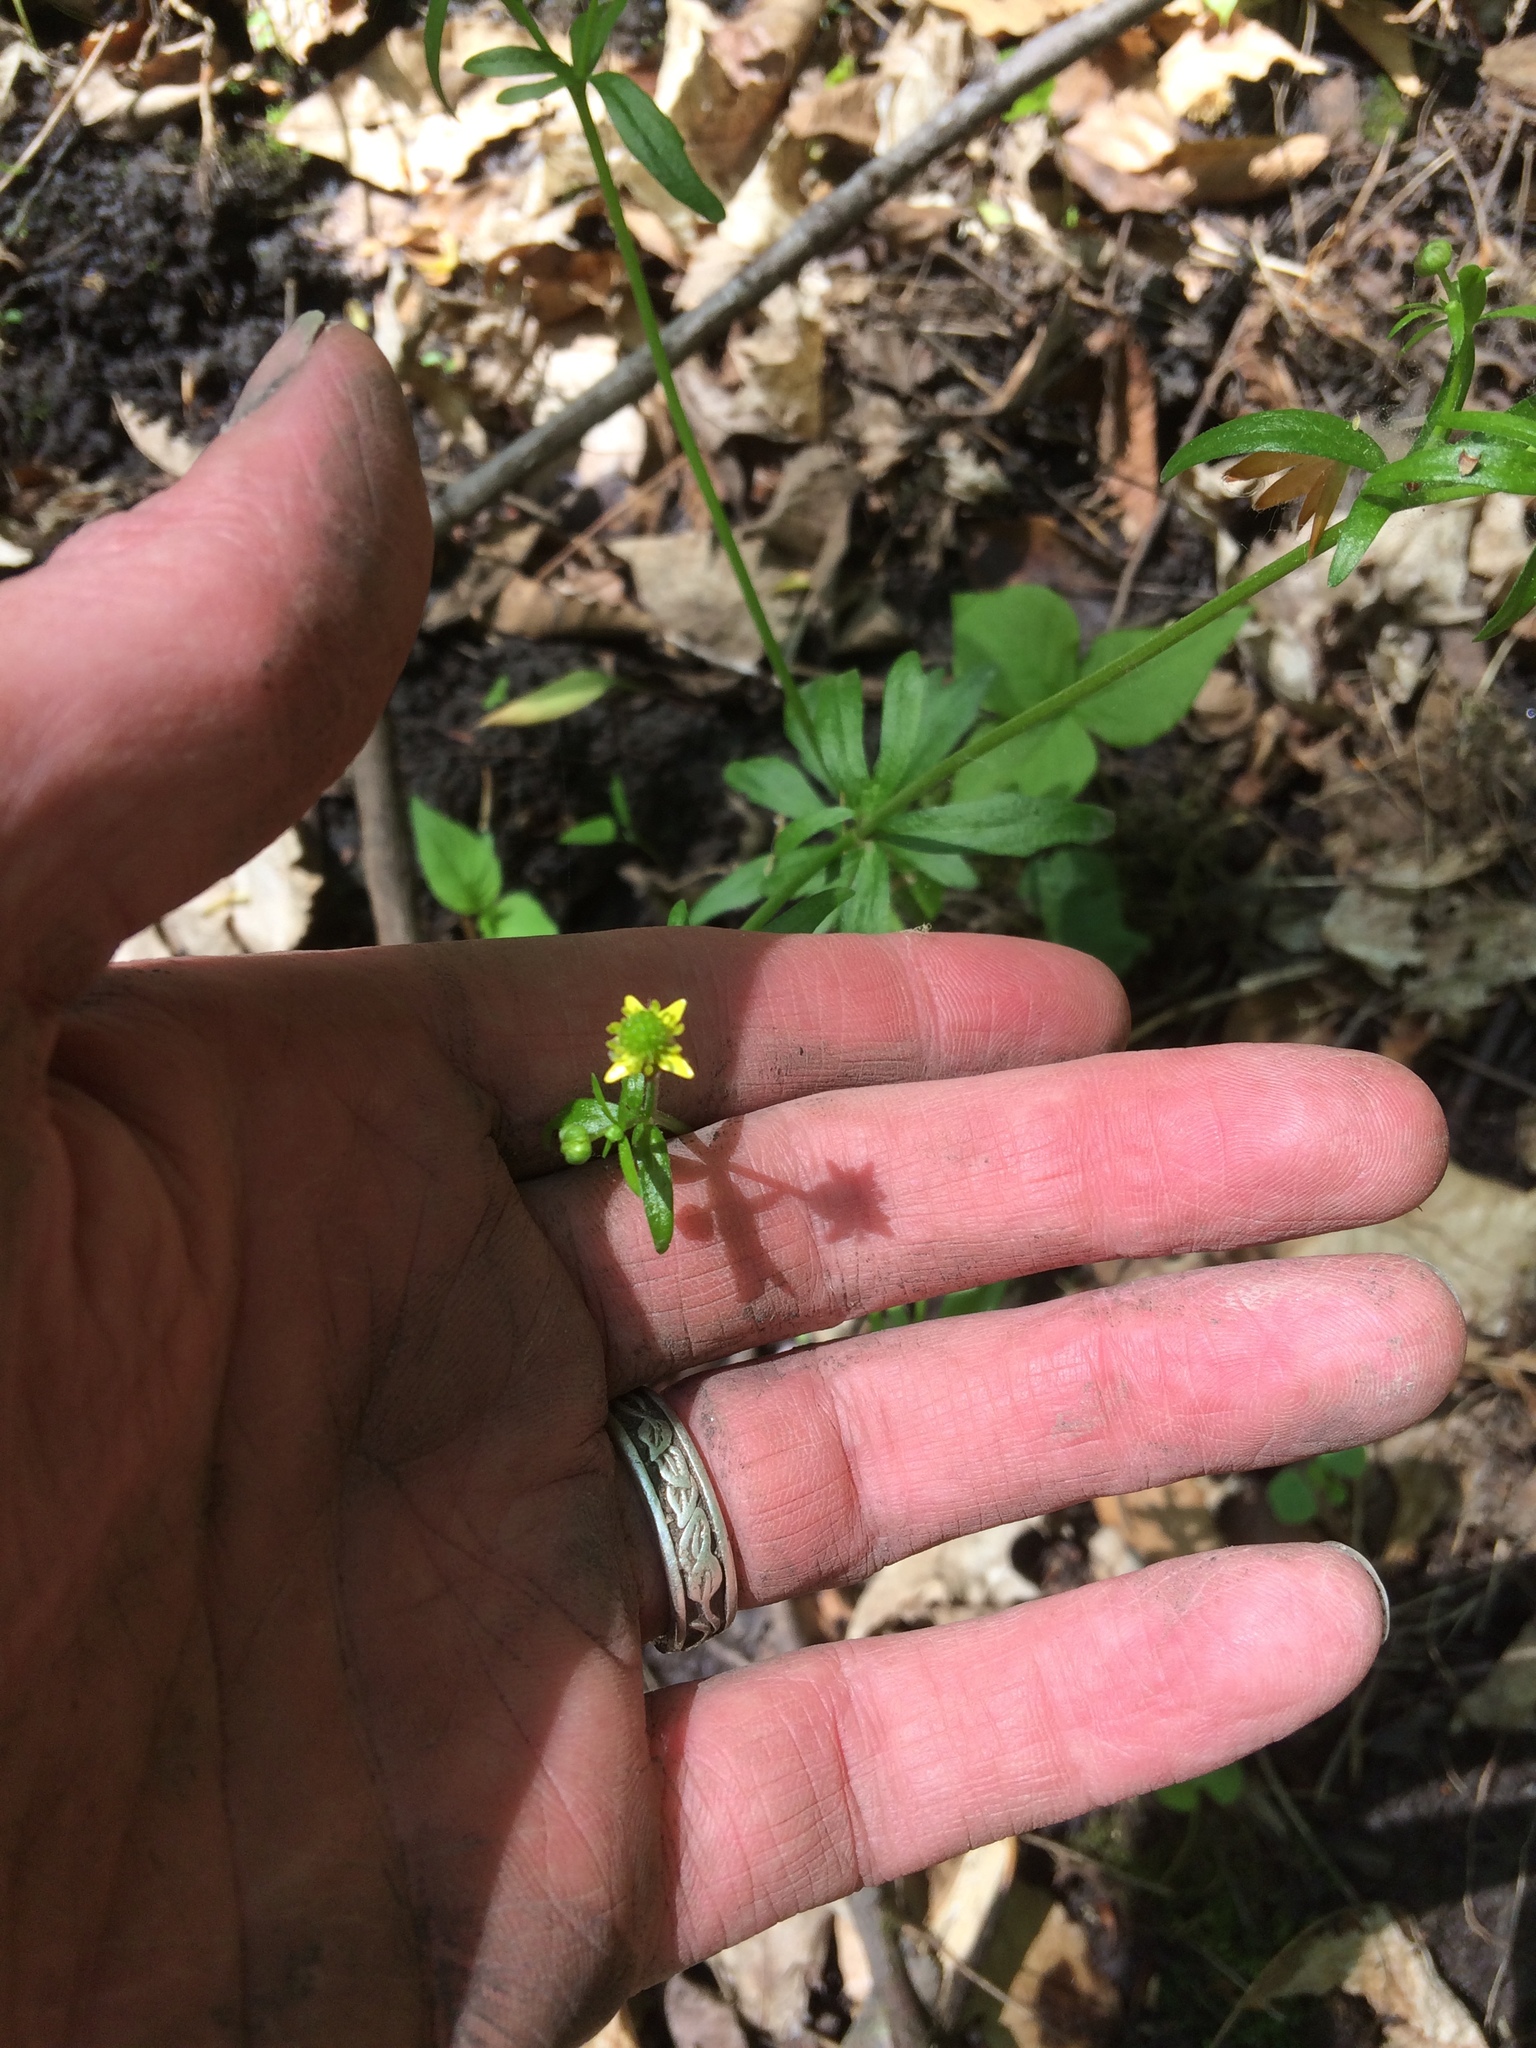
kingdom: Plantae
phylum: Tracheophyta
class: Magnoliopsida
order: Ranunculales
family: Ranunculaceae
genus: Ranunculus
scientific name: Ranunculus abortivus
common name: Early wood buttercup
